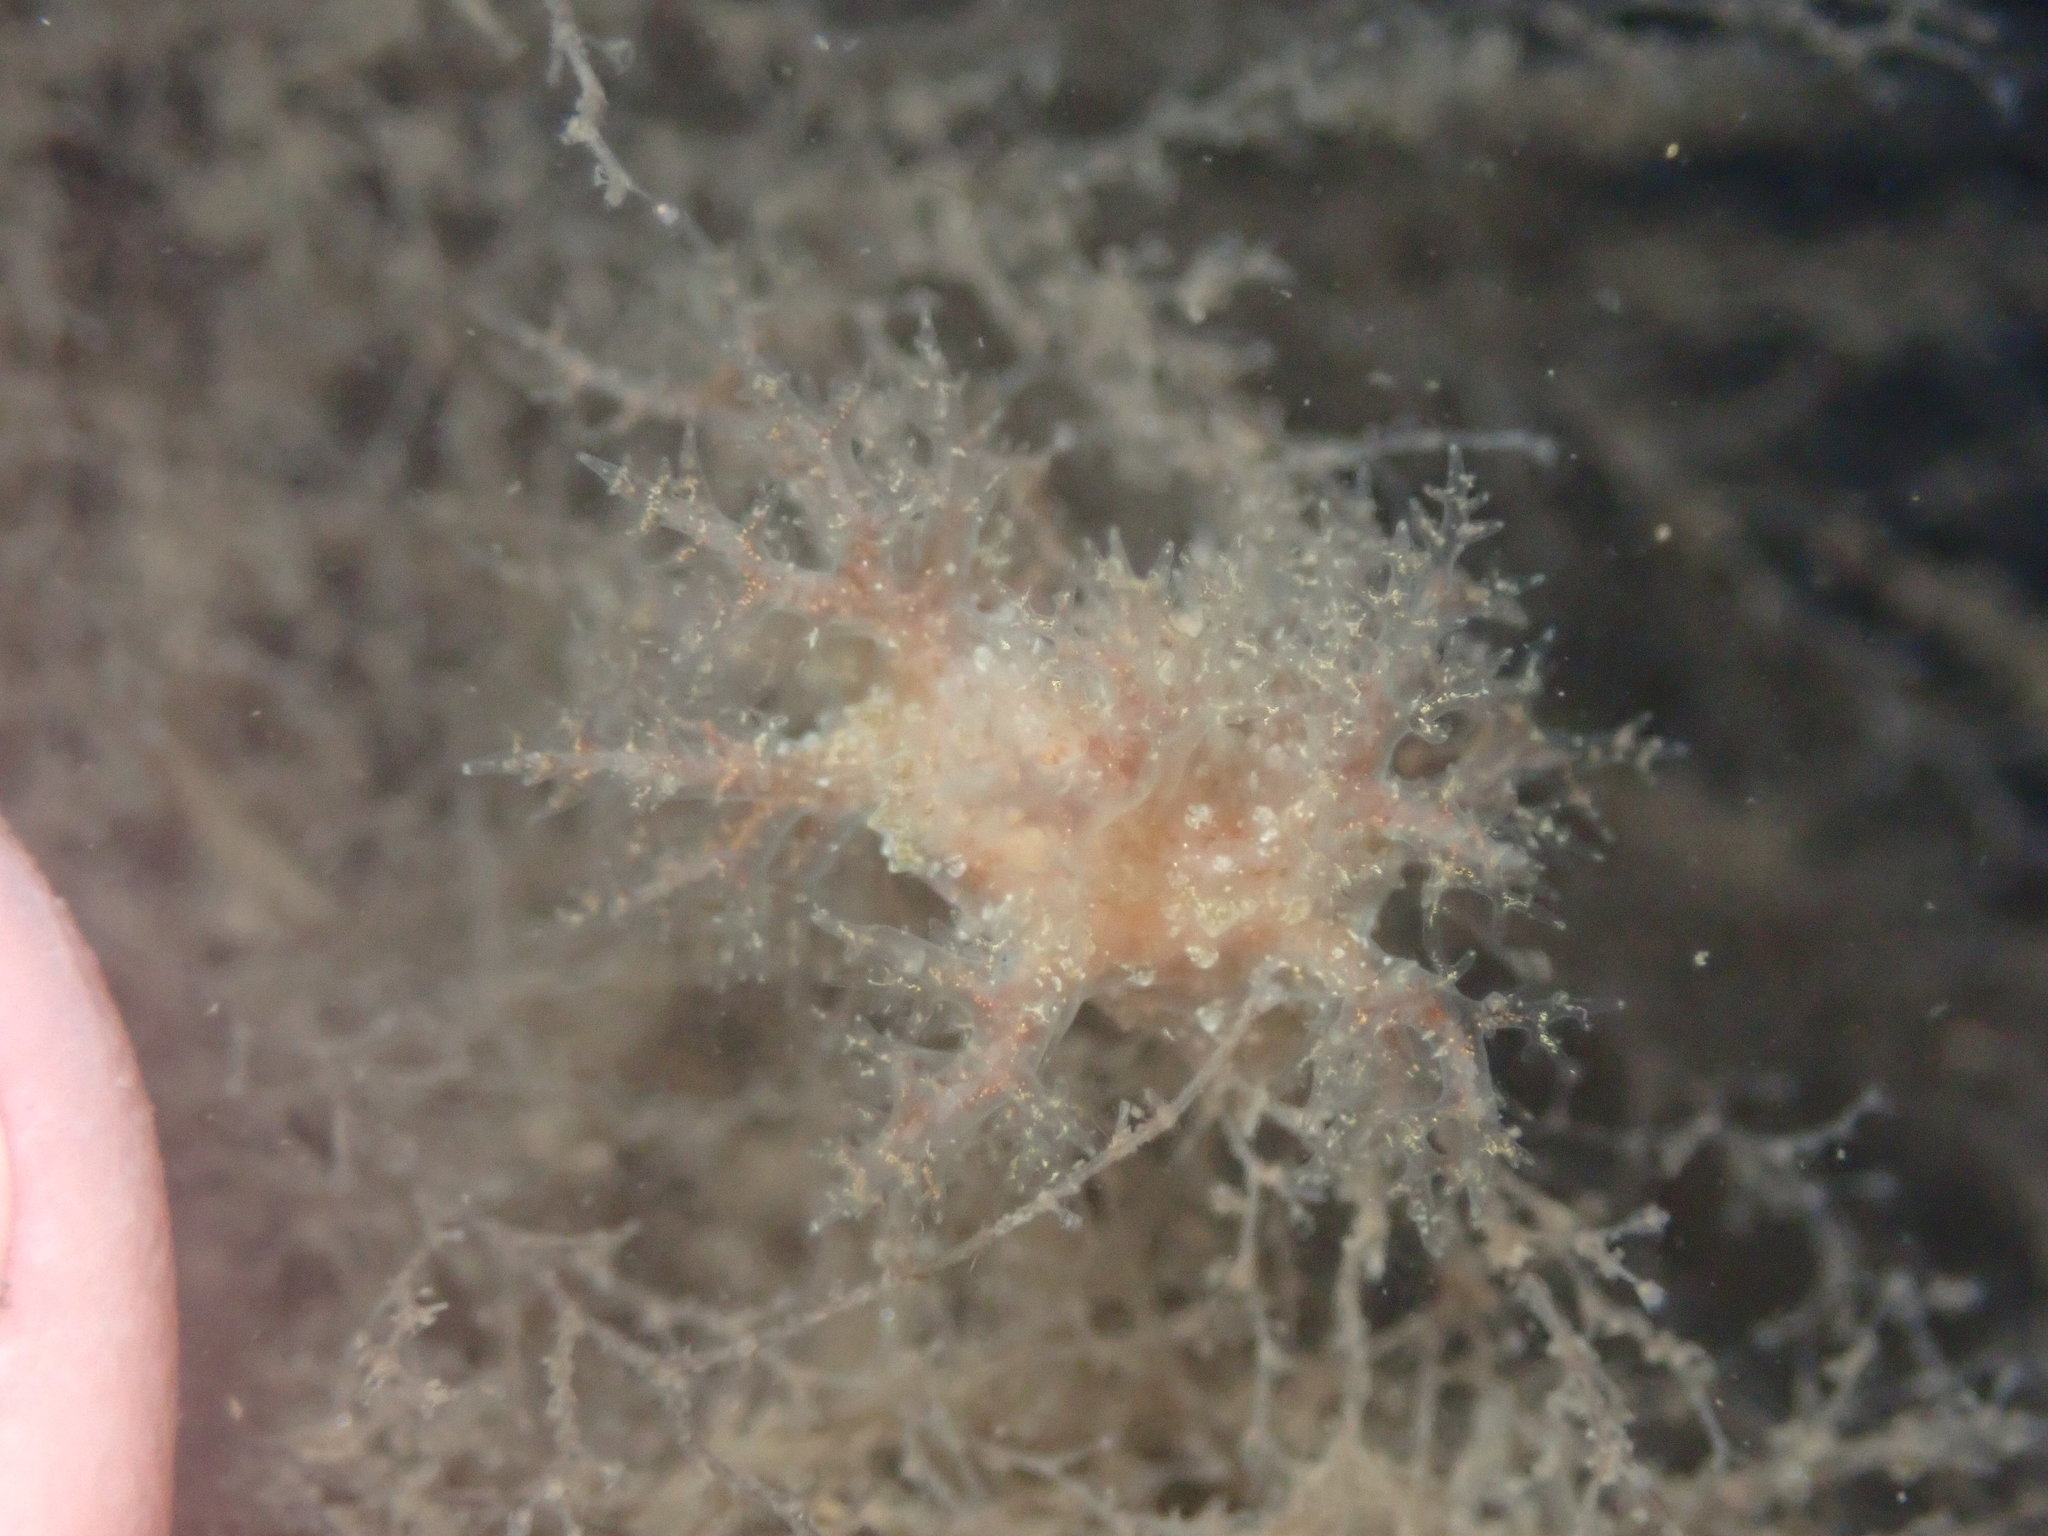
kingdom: Animalia
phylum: Mollusca
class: Gastropoda
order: Nudibranchia
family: Dendronotidae
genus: Dendronotus
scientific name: Dendronotus venustus
